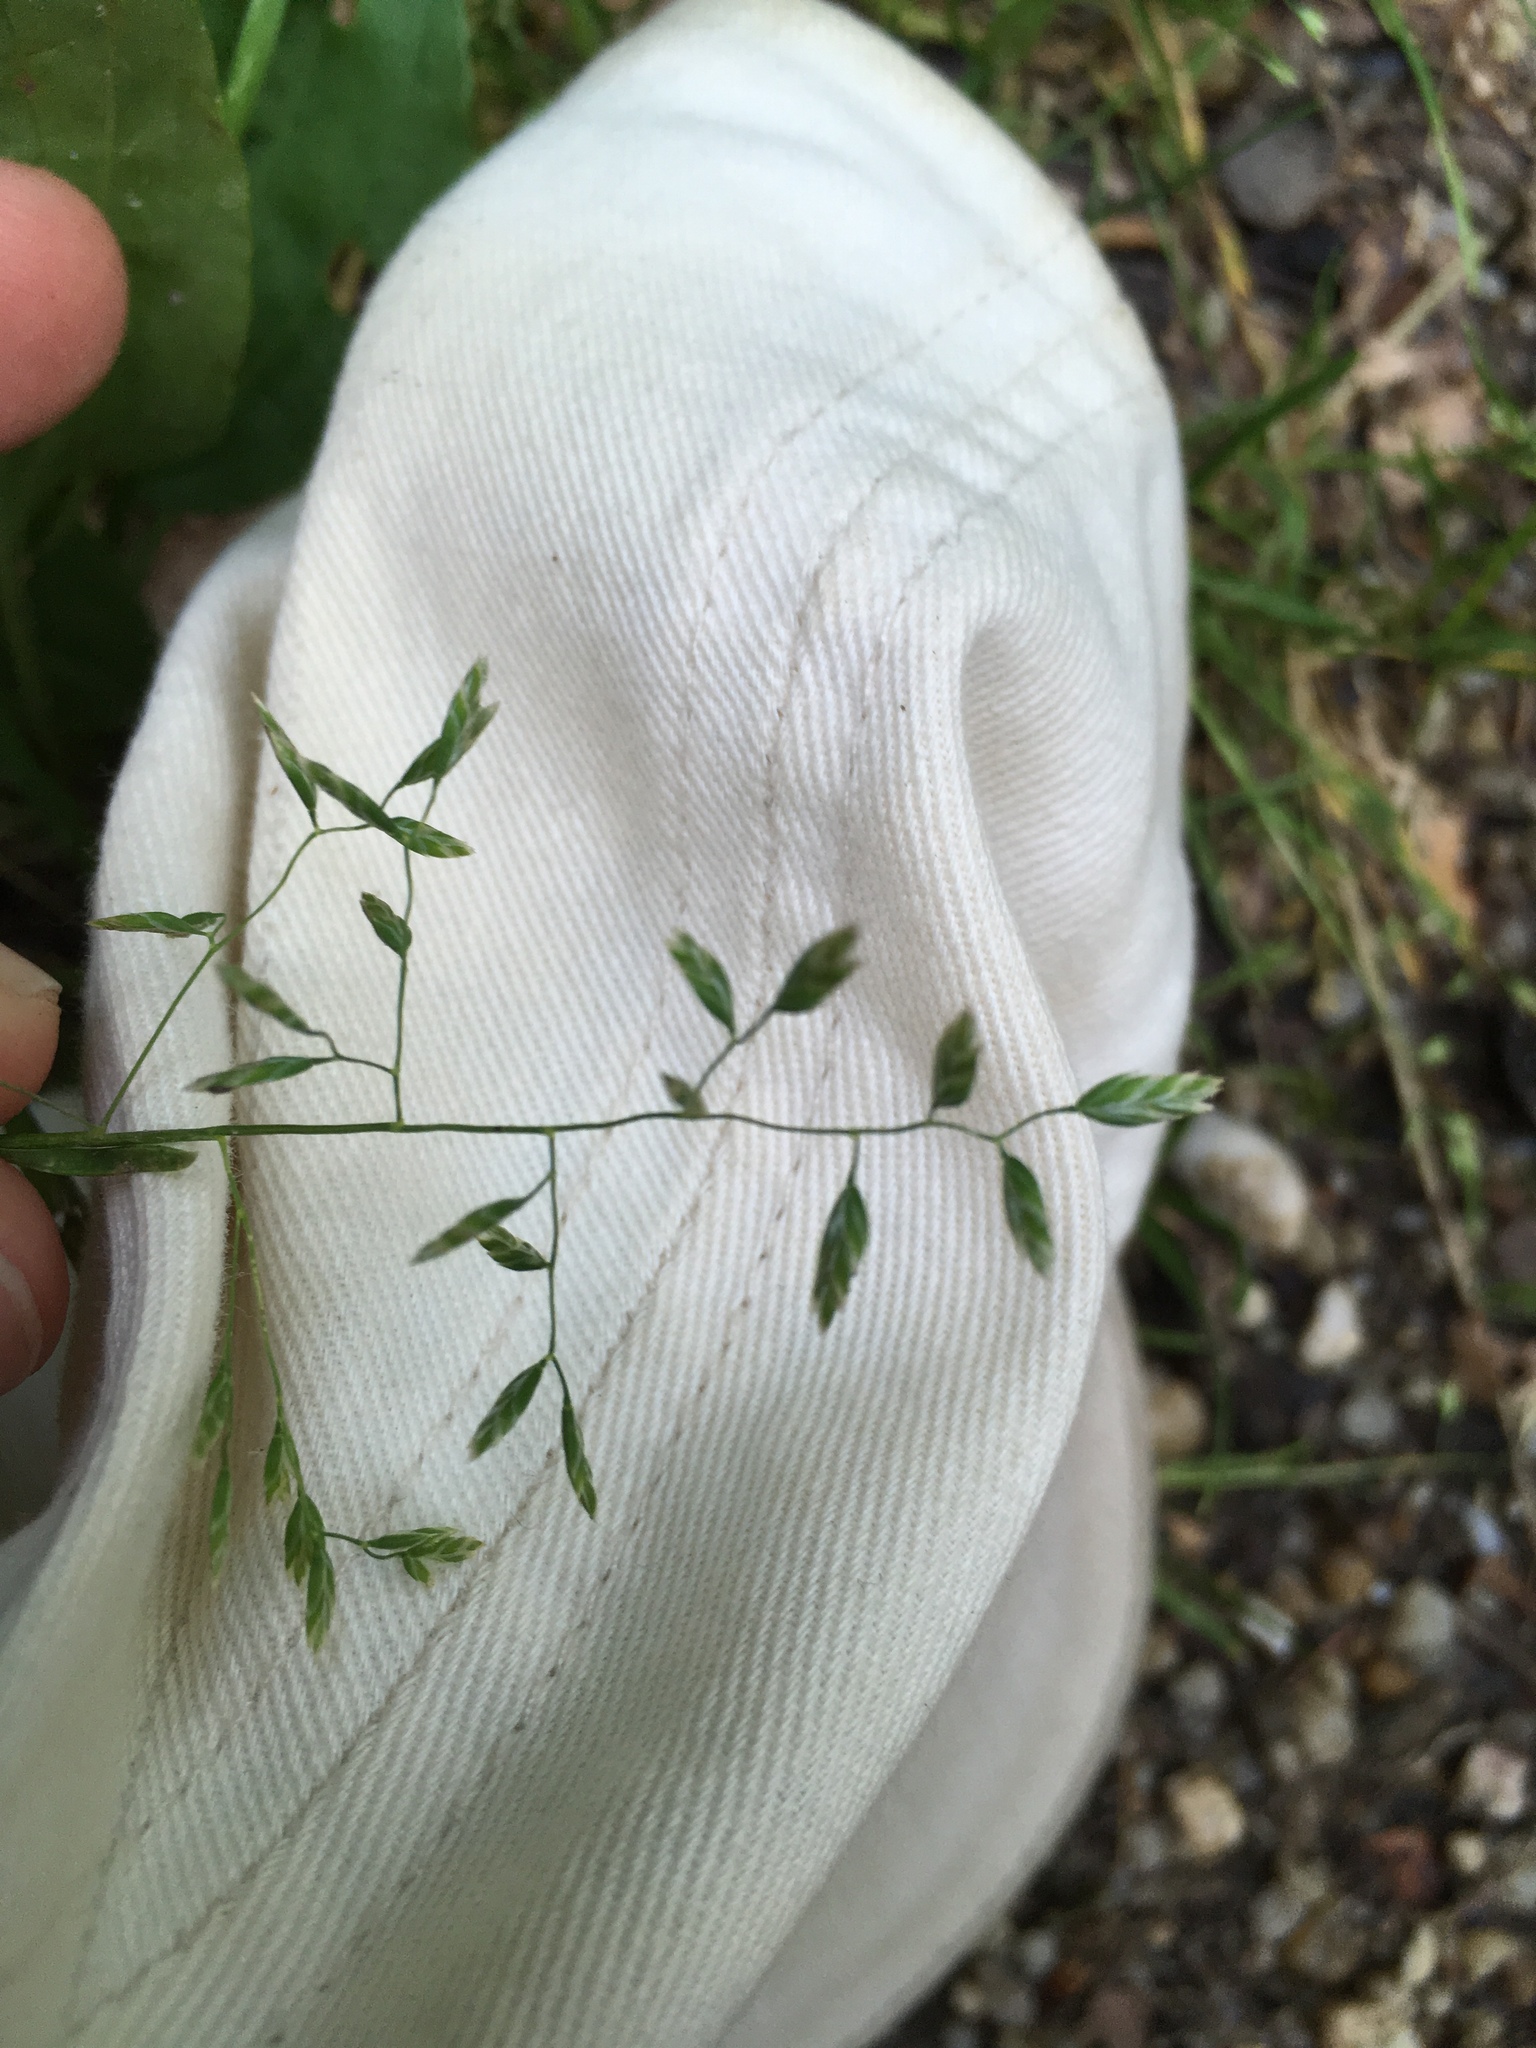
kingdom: Plantae
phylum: Tracheophyta
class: Liliopsida
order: Poales
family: Poaceae
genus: Poa
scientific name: Poa annua
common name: Annual bluegrass
